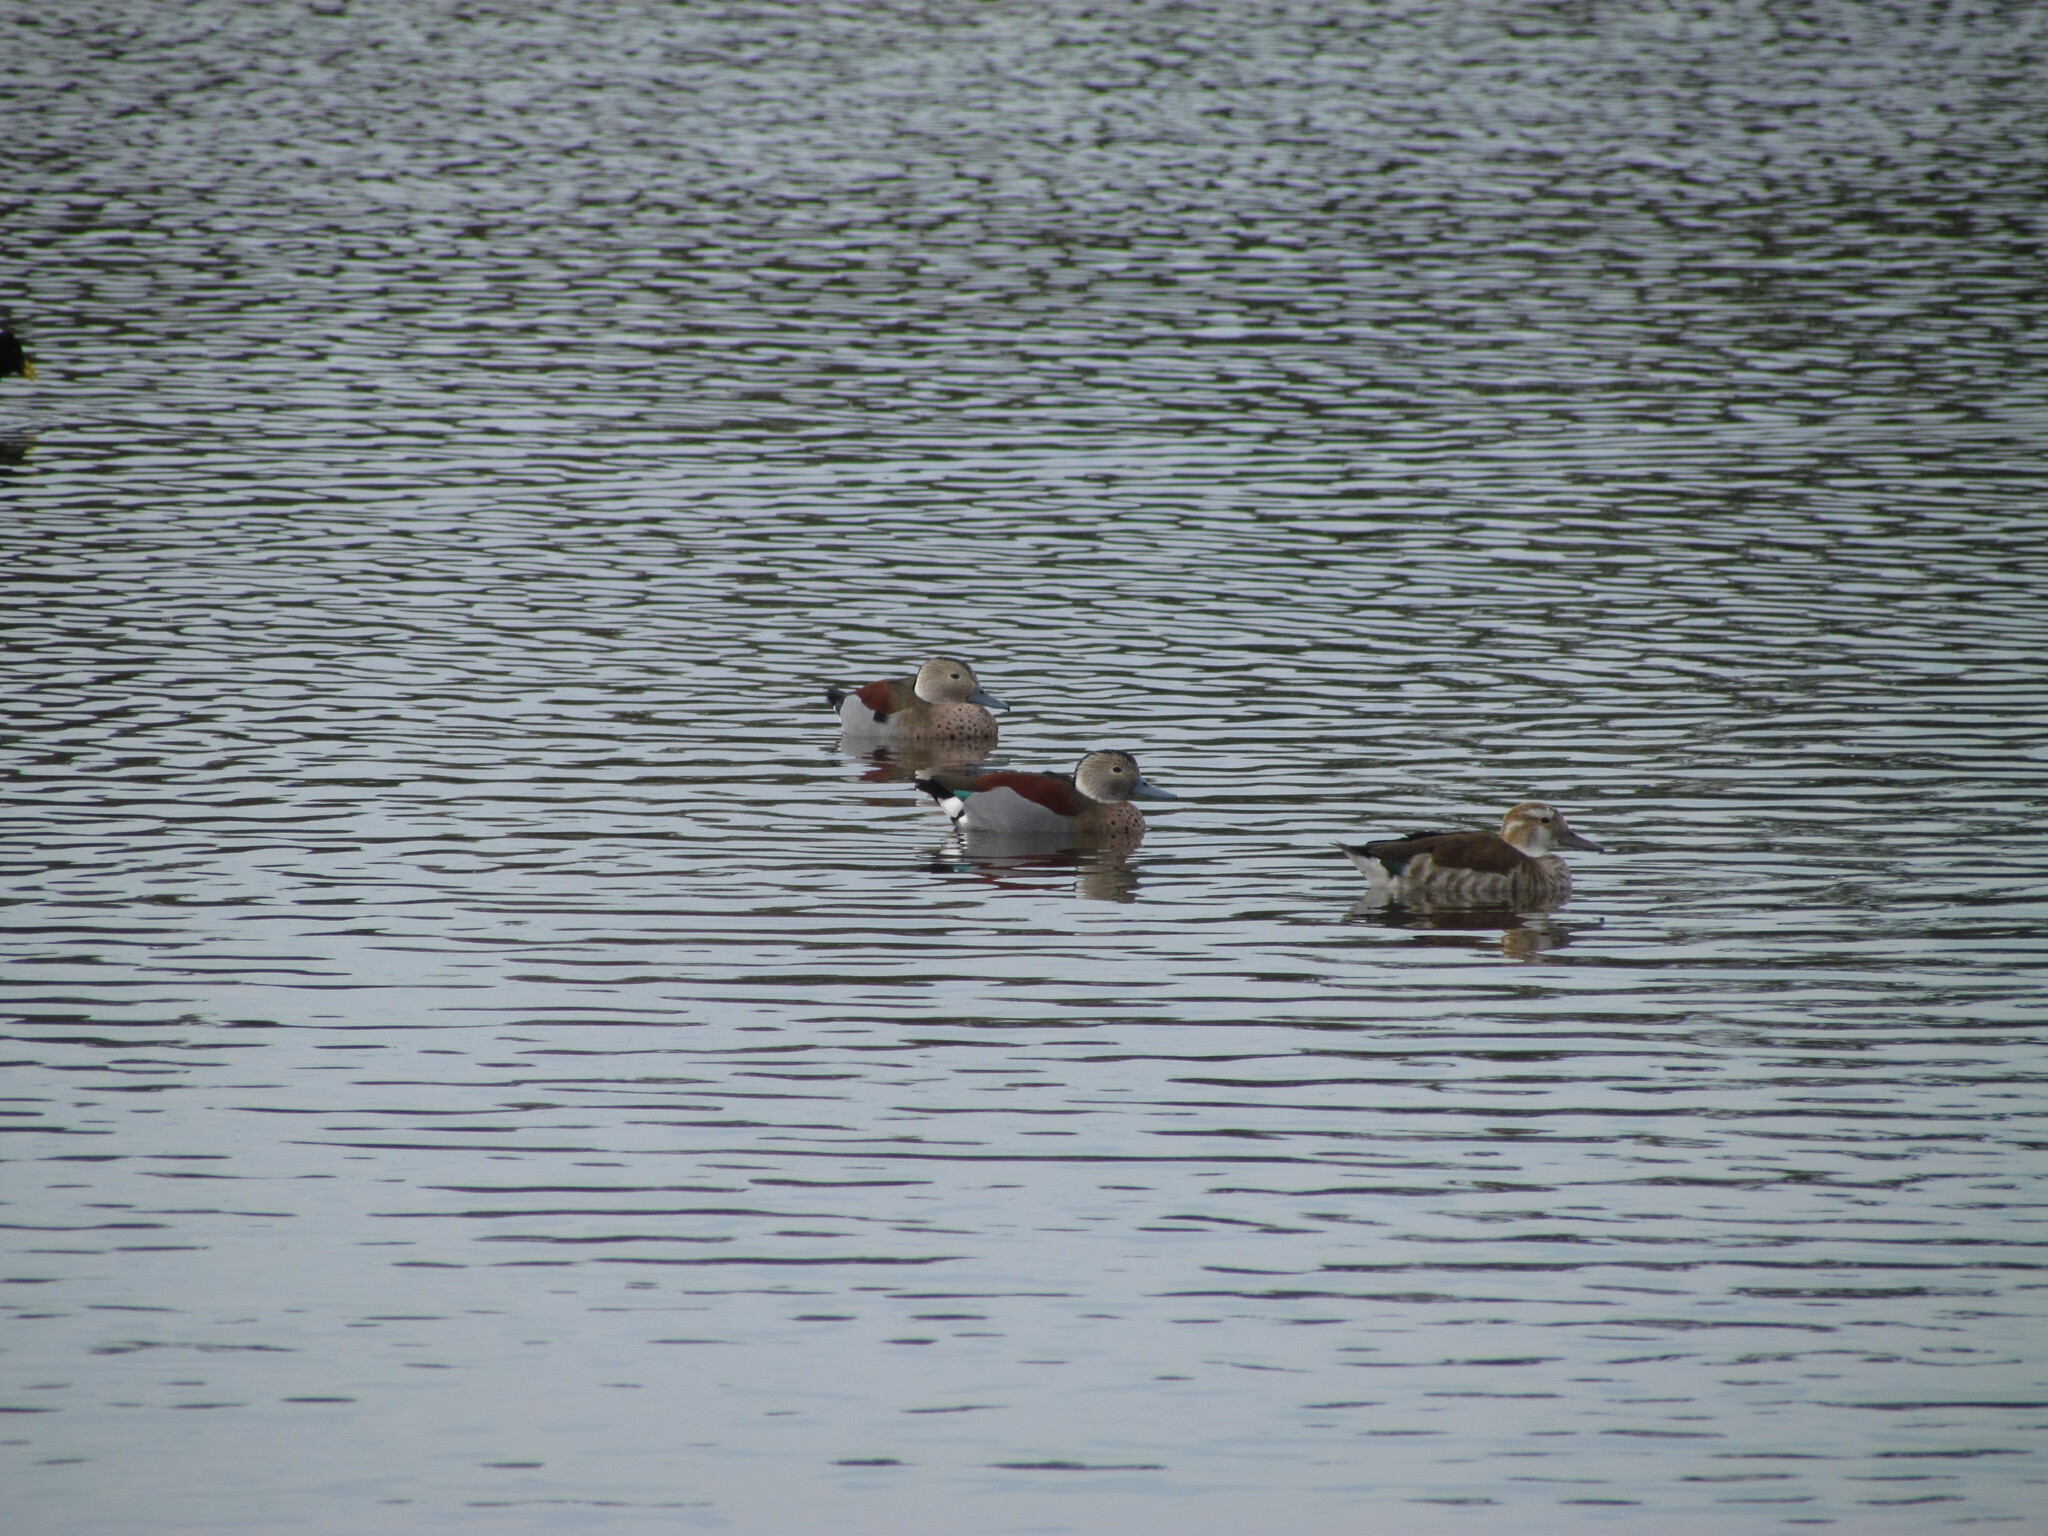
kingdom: Animalia
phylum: Chordata
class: Aves
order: Anseriformes
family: Anatidae
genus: Callonetta
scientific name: Callonetta leucophrys
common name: Ringed teal
